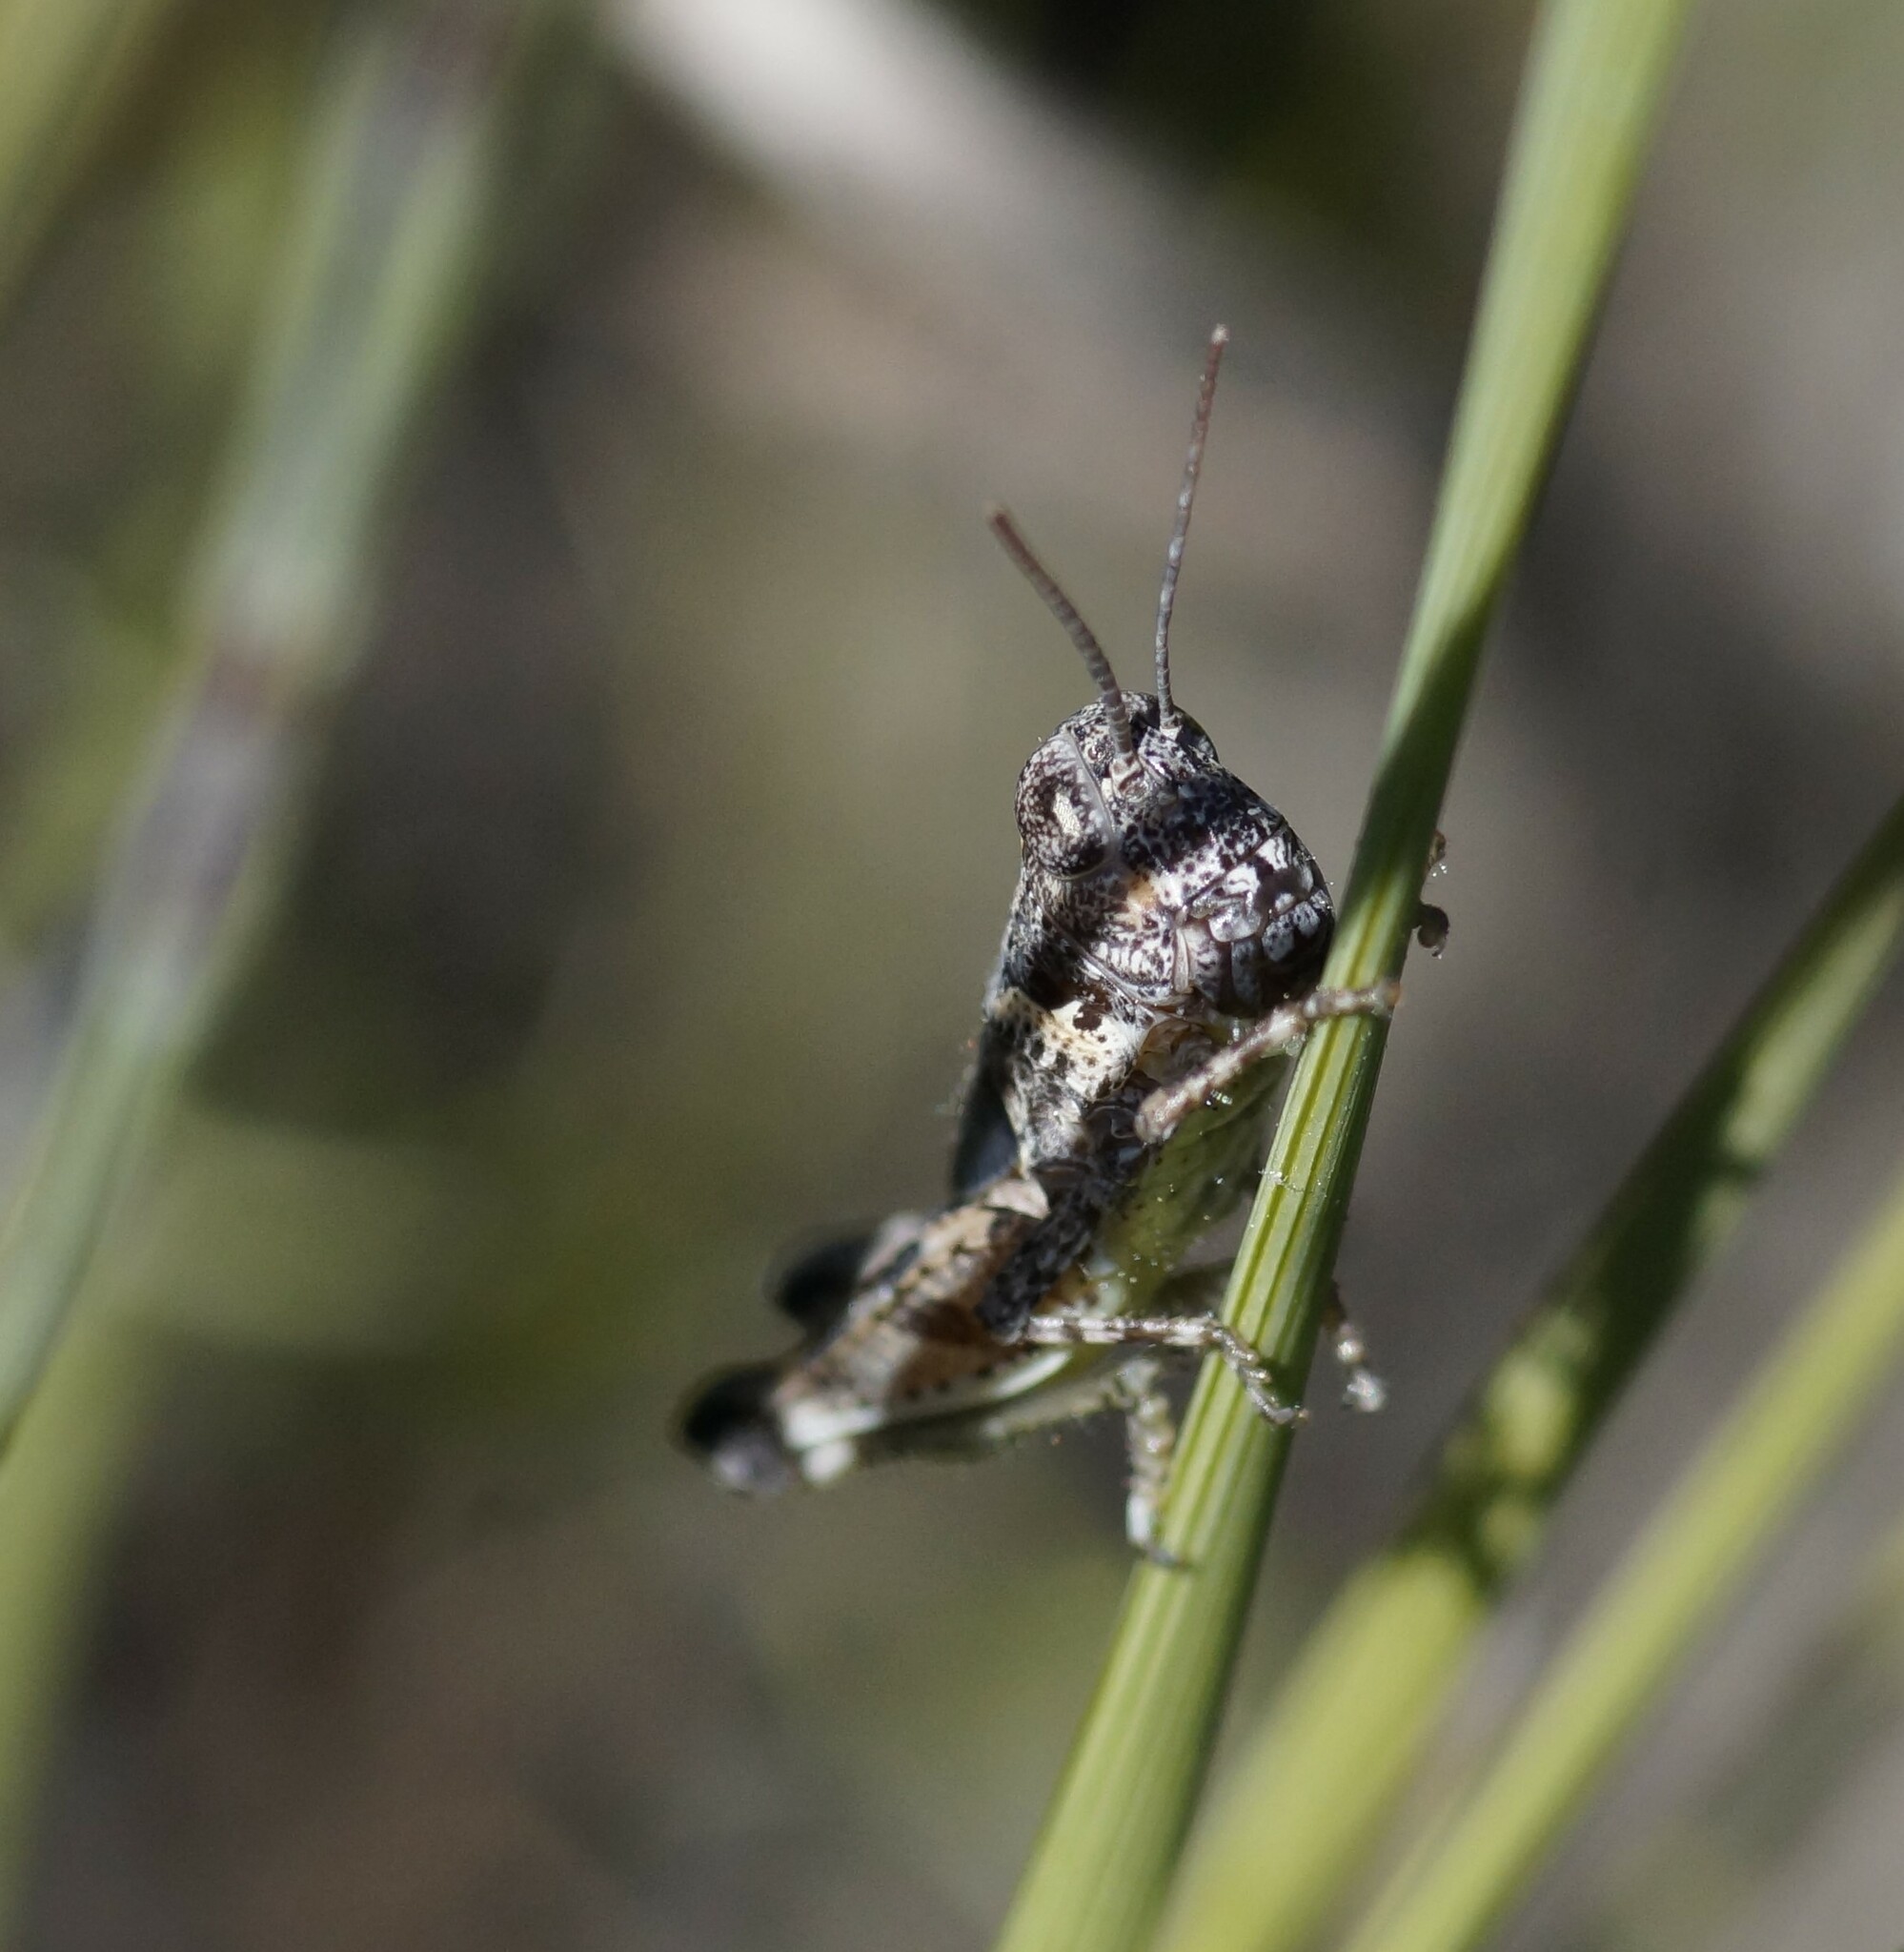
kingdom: Animalia
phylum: Arthropoda
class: Insecta
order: Orthoptera
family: Acrididae
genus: Exarna
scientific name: Exarna includens
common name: Red-legged exarna
